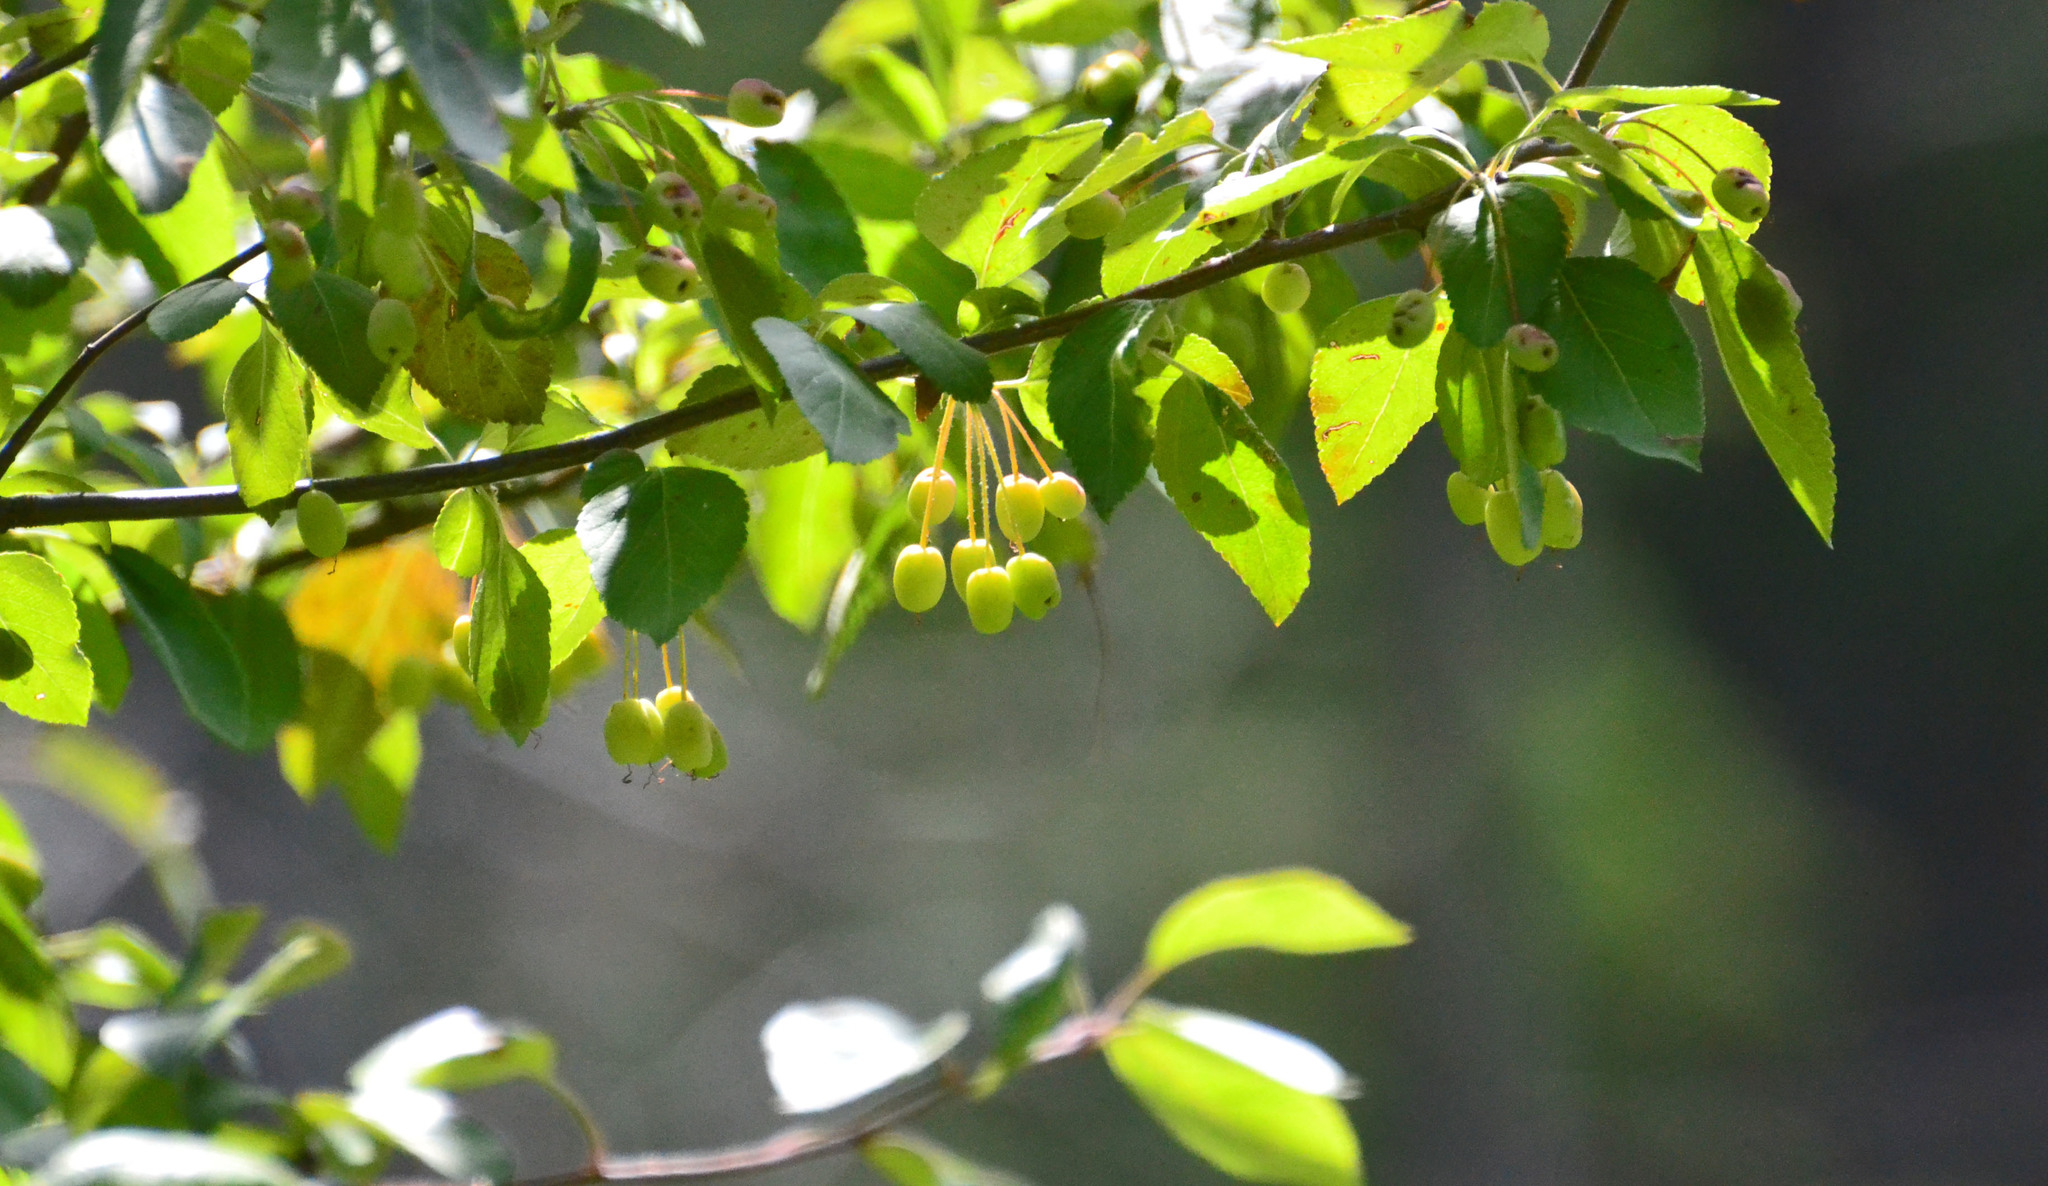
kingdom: Plantae
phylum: Tracheophyta
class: Magnoliopsida
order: Rosales
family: Rosaceae
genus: Malus
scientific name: Malus fusca
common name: Oregon crab apple
